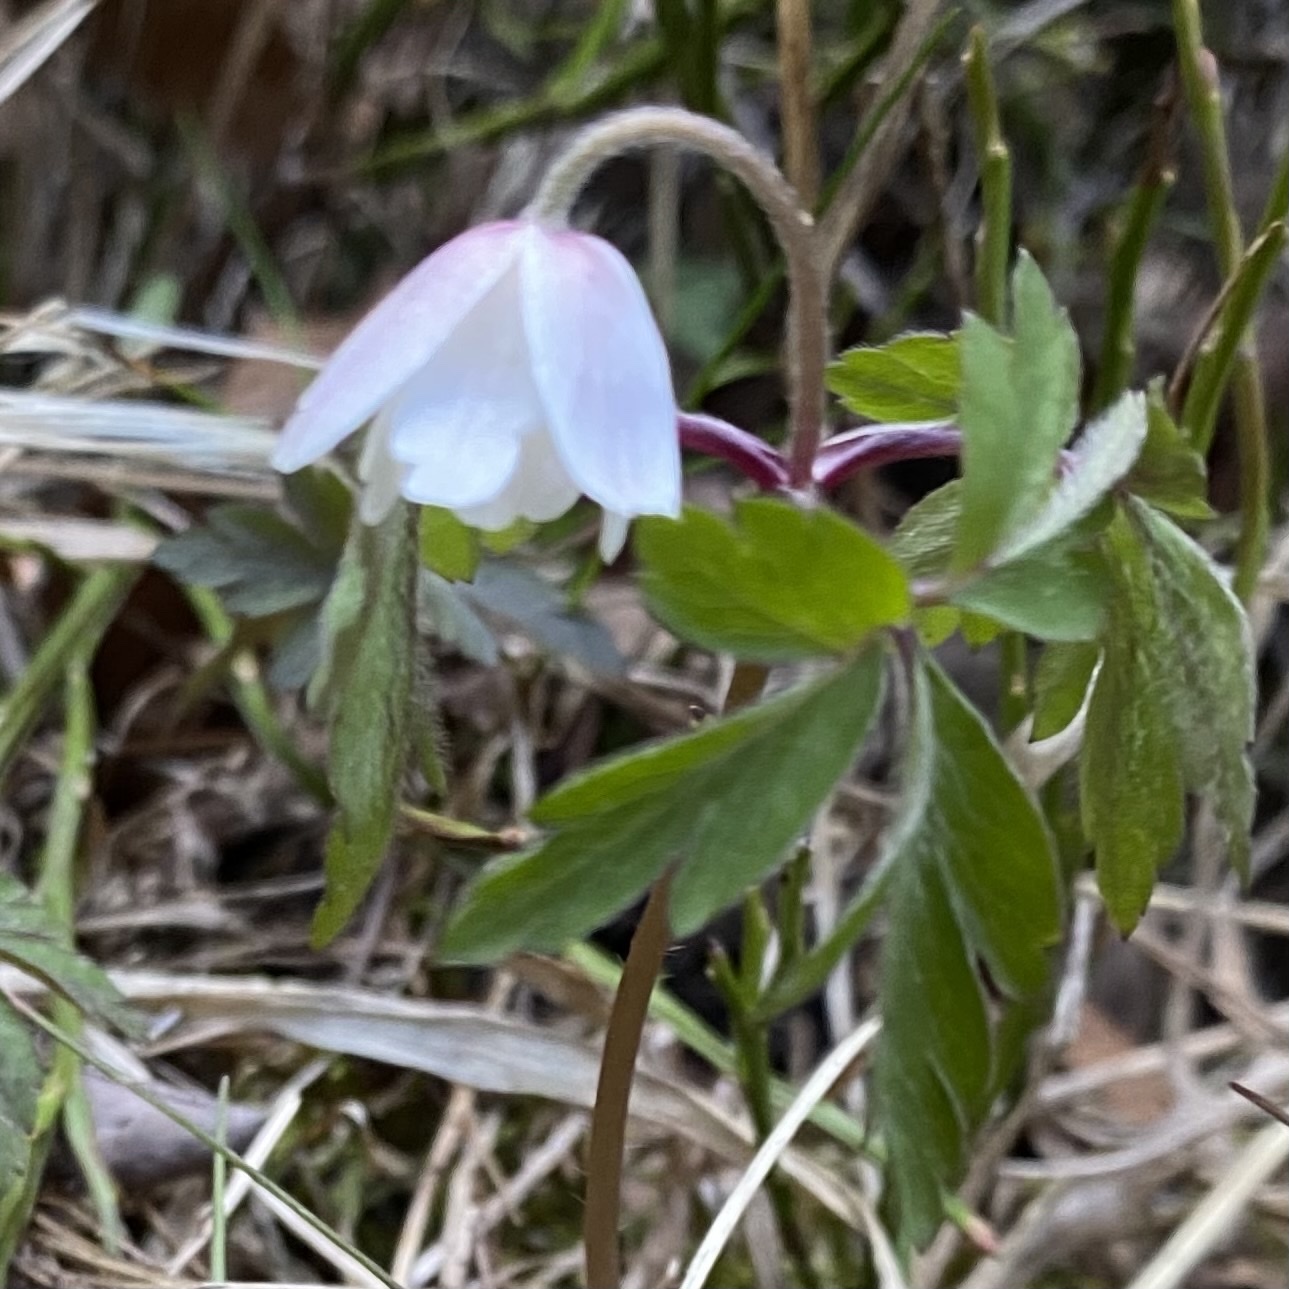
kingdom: Plantae
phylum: Tracheophyta
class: Magnoliopsida
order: Ranunculales
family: Ranunculaceae
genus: Anemone
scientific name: Anemone nemorosa
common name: Wood anemone
